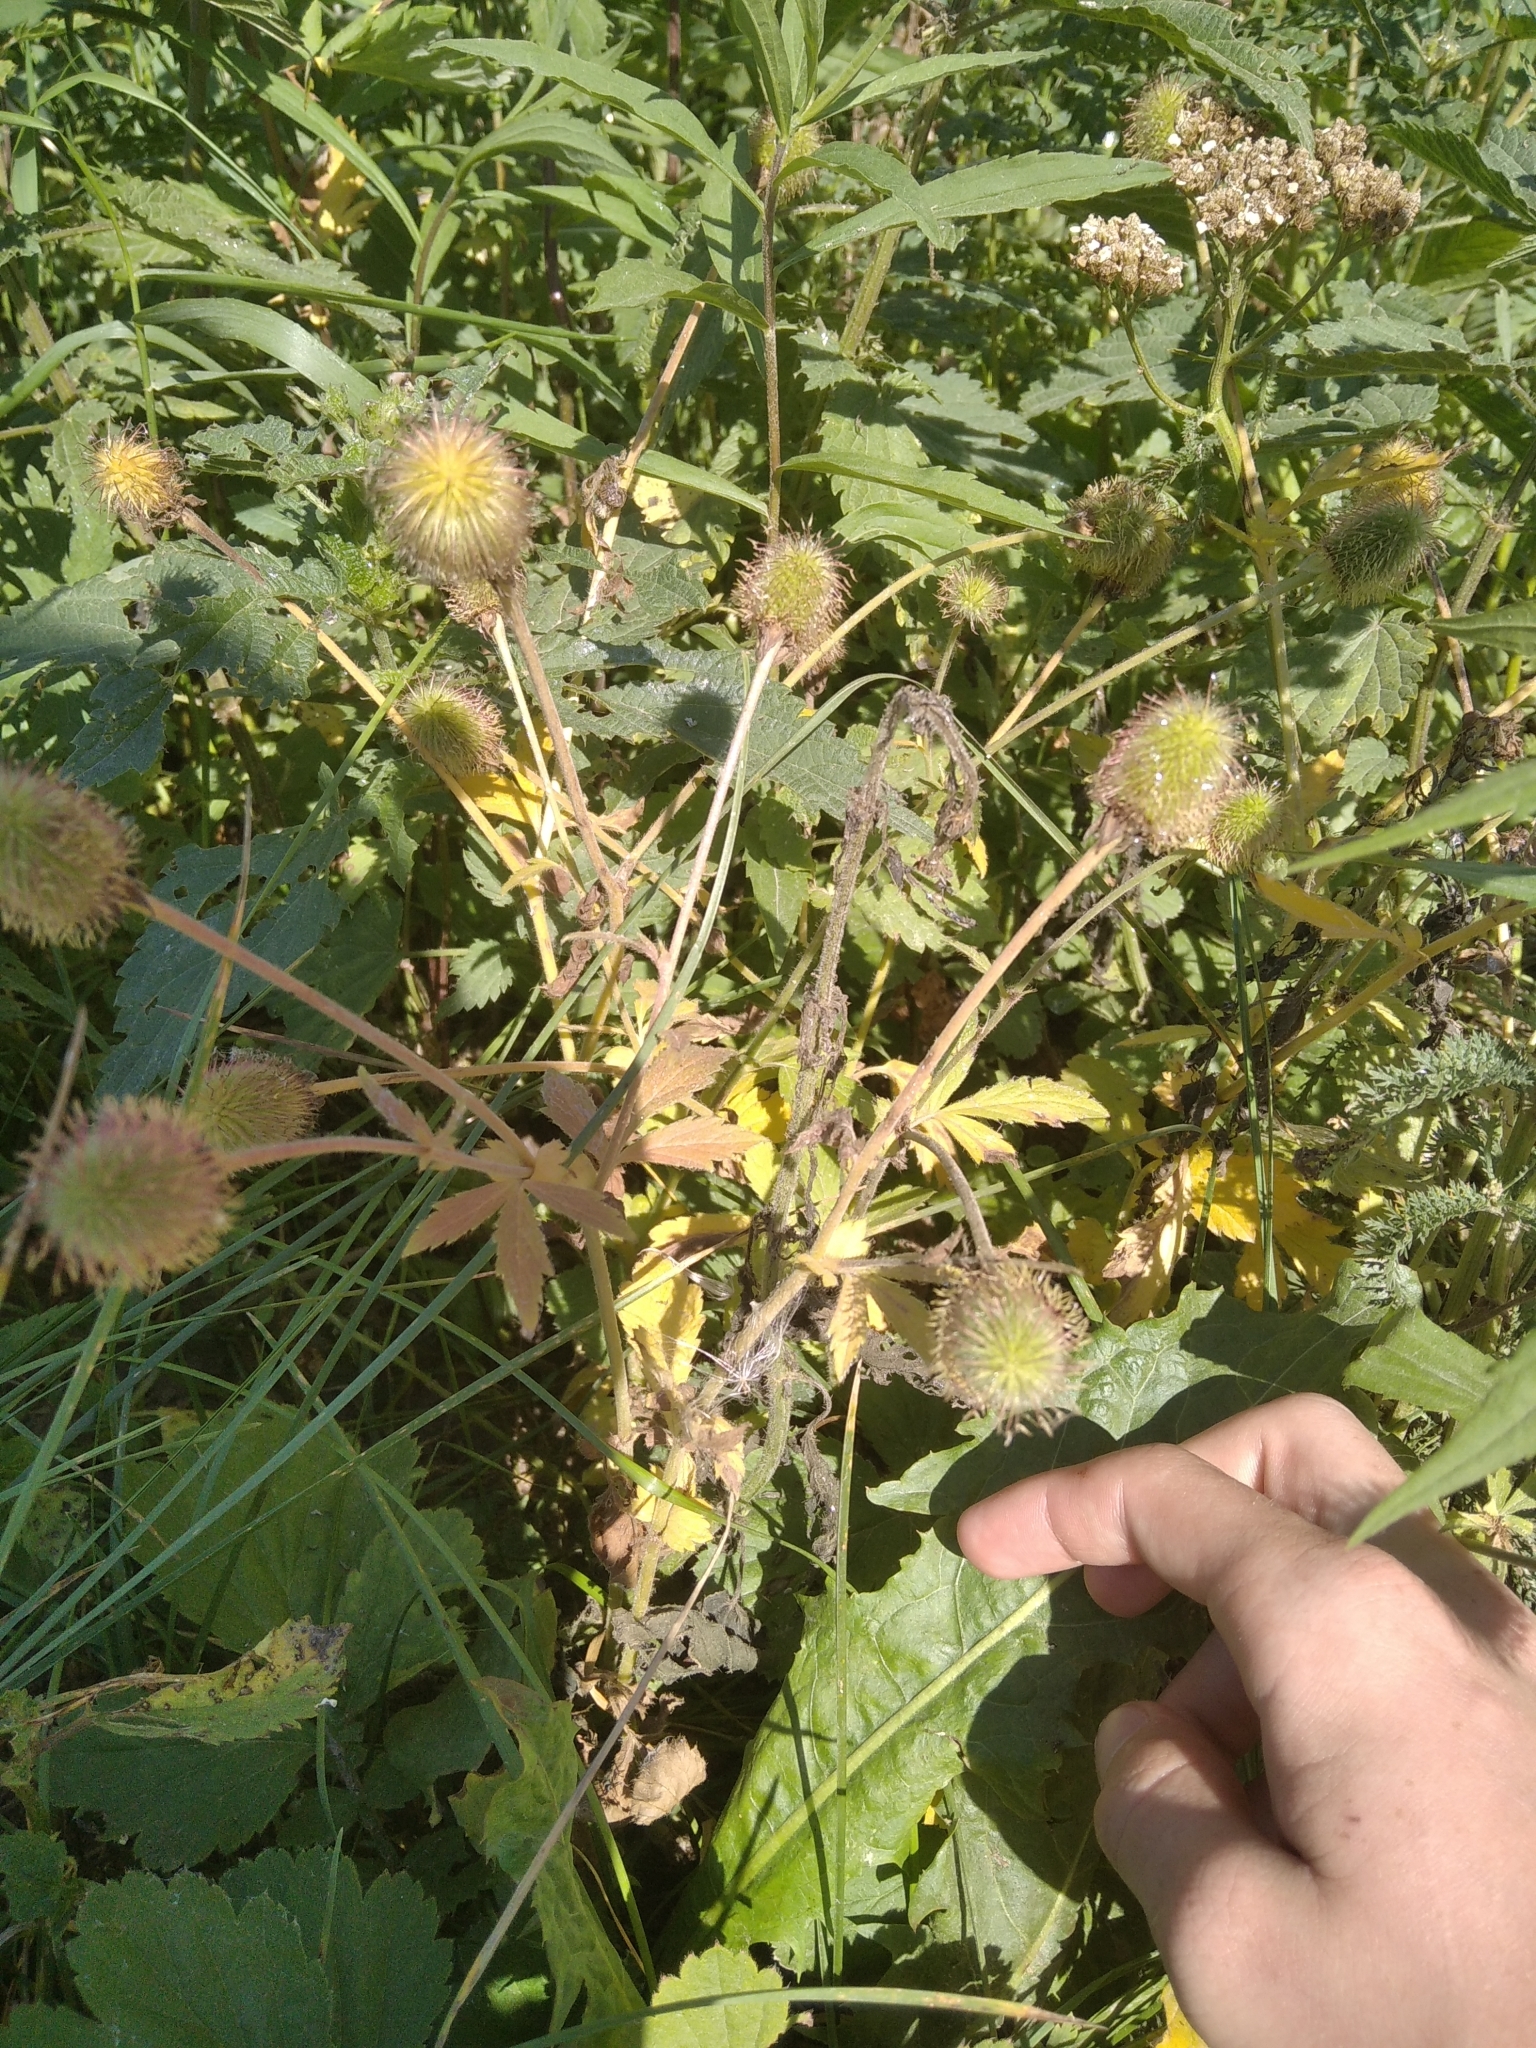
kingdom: Plantae
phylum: Tracheophyta
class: Magnoliopsida
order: Rosales
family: Rosaceae
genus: Geum
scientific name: Geum aleppicum
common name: Yellow avens
